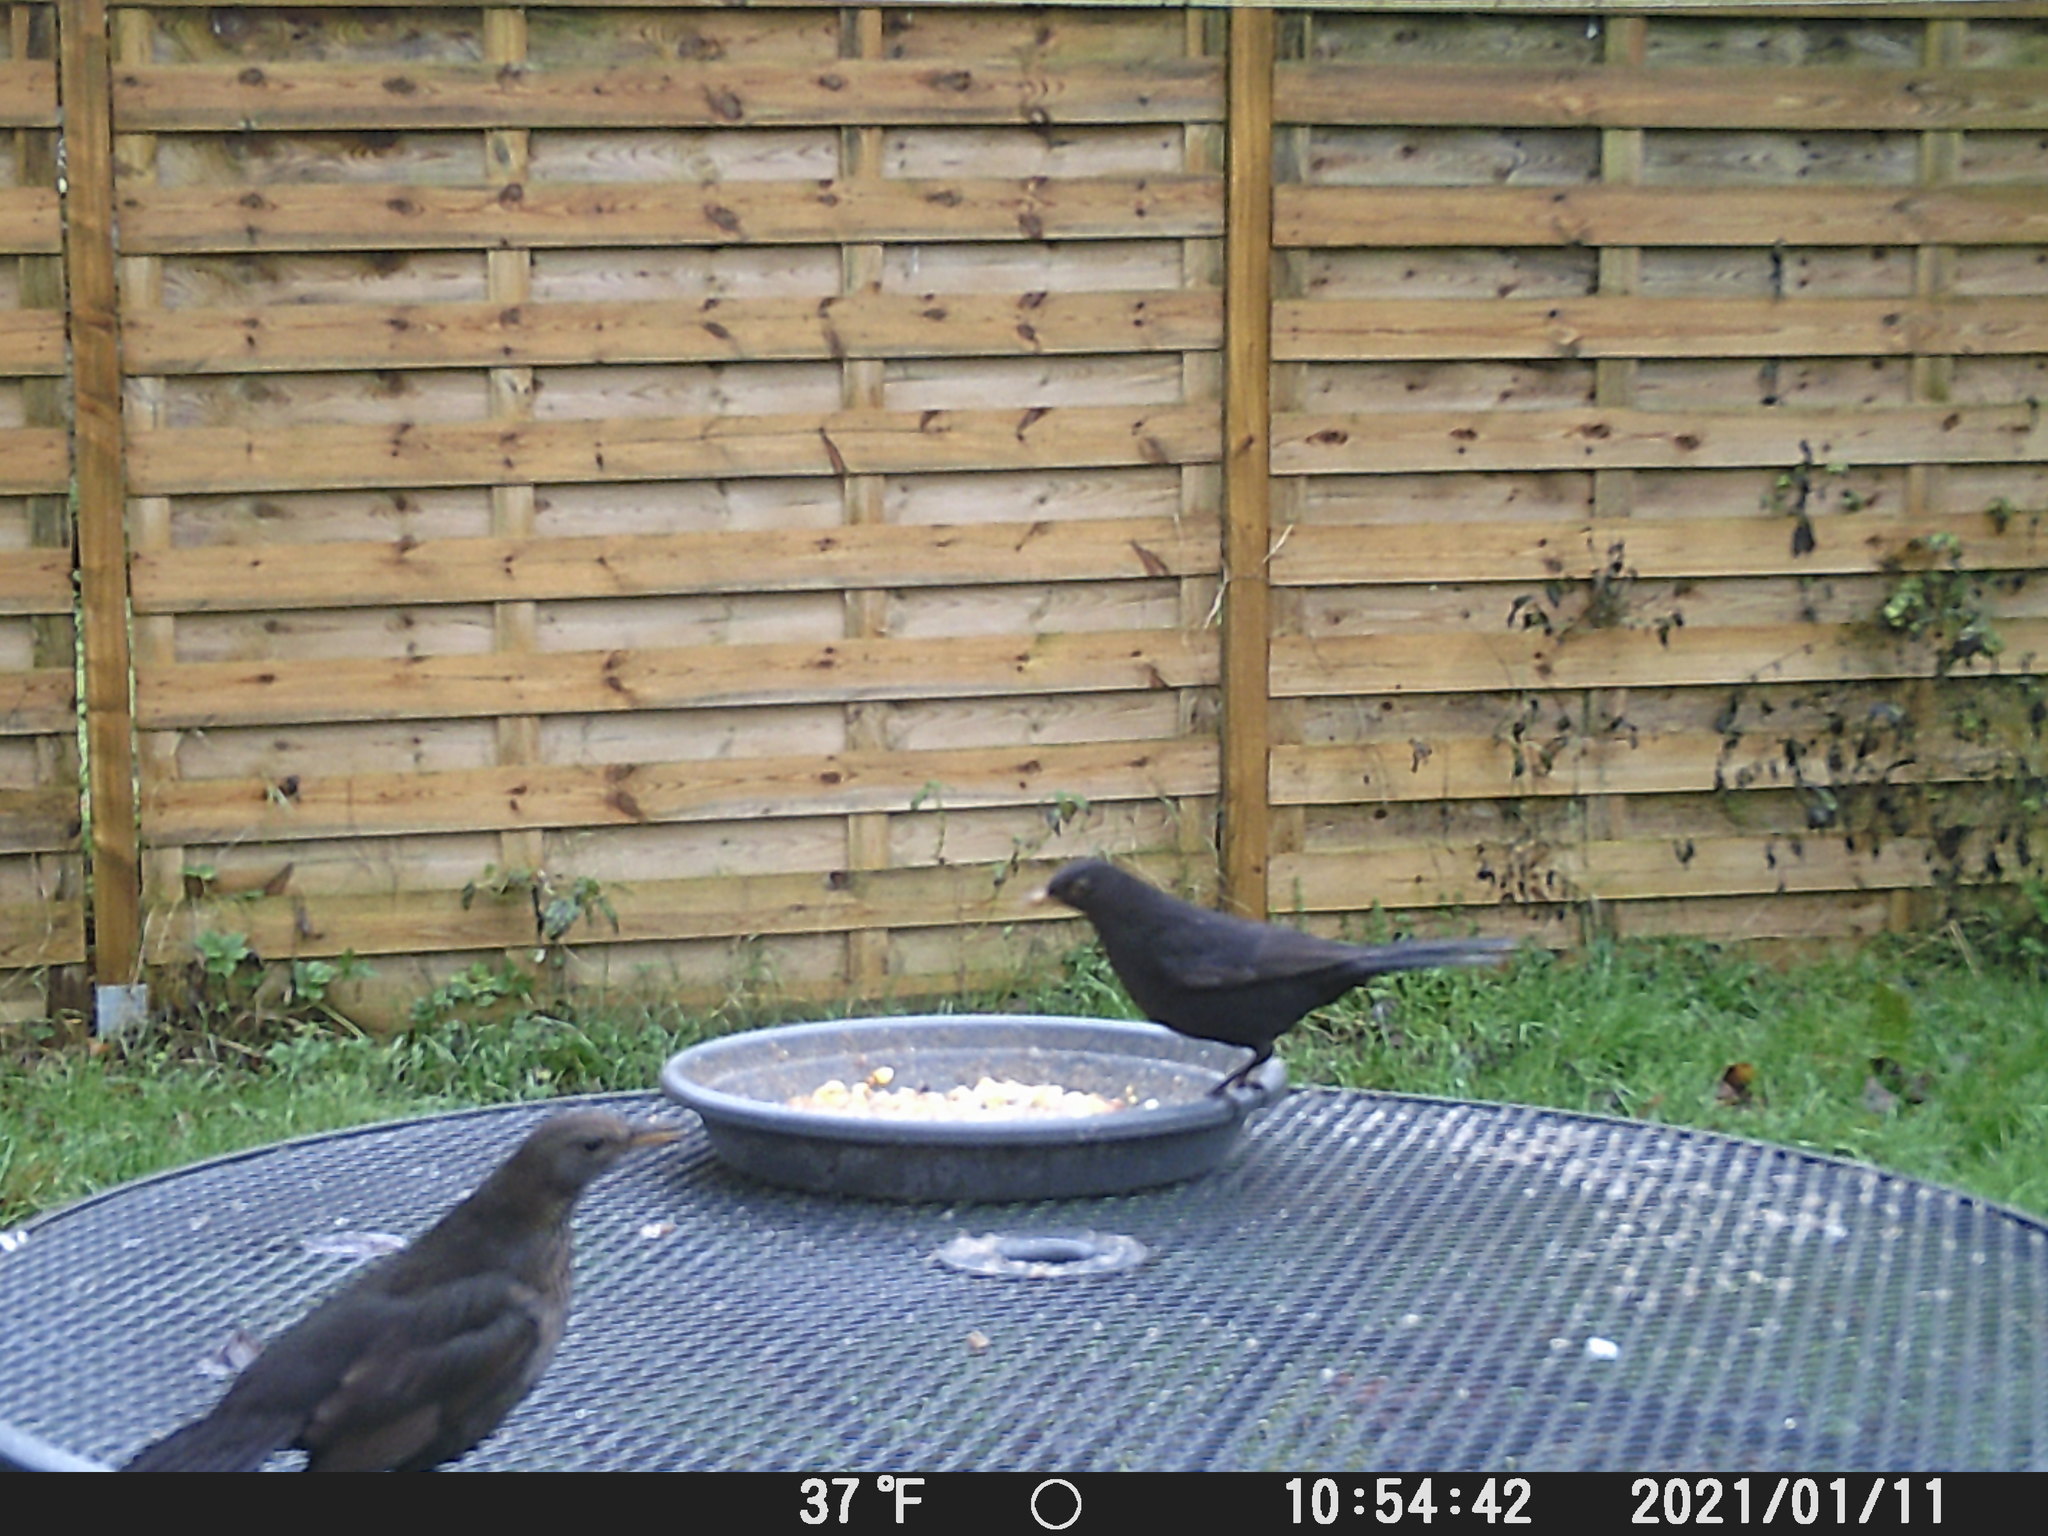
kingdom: Animalia
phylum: Chordata
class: Aves
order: Passeriformes
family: Turdidae
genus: Turdus
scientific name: Turdus merula
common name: Common blackbird
